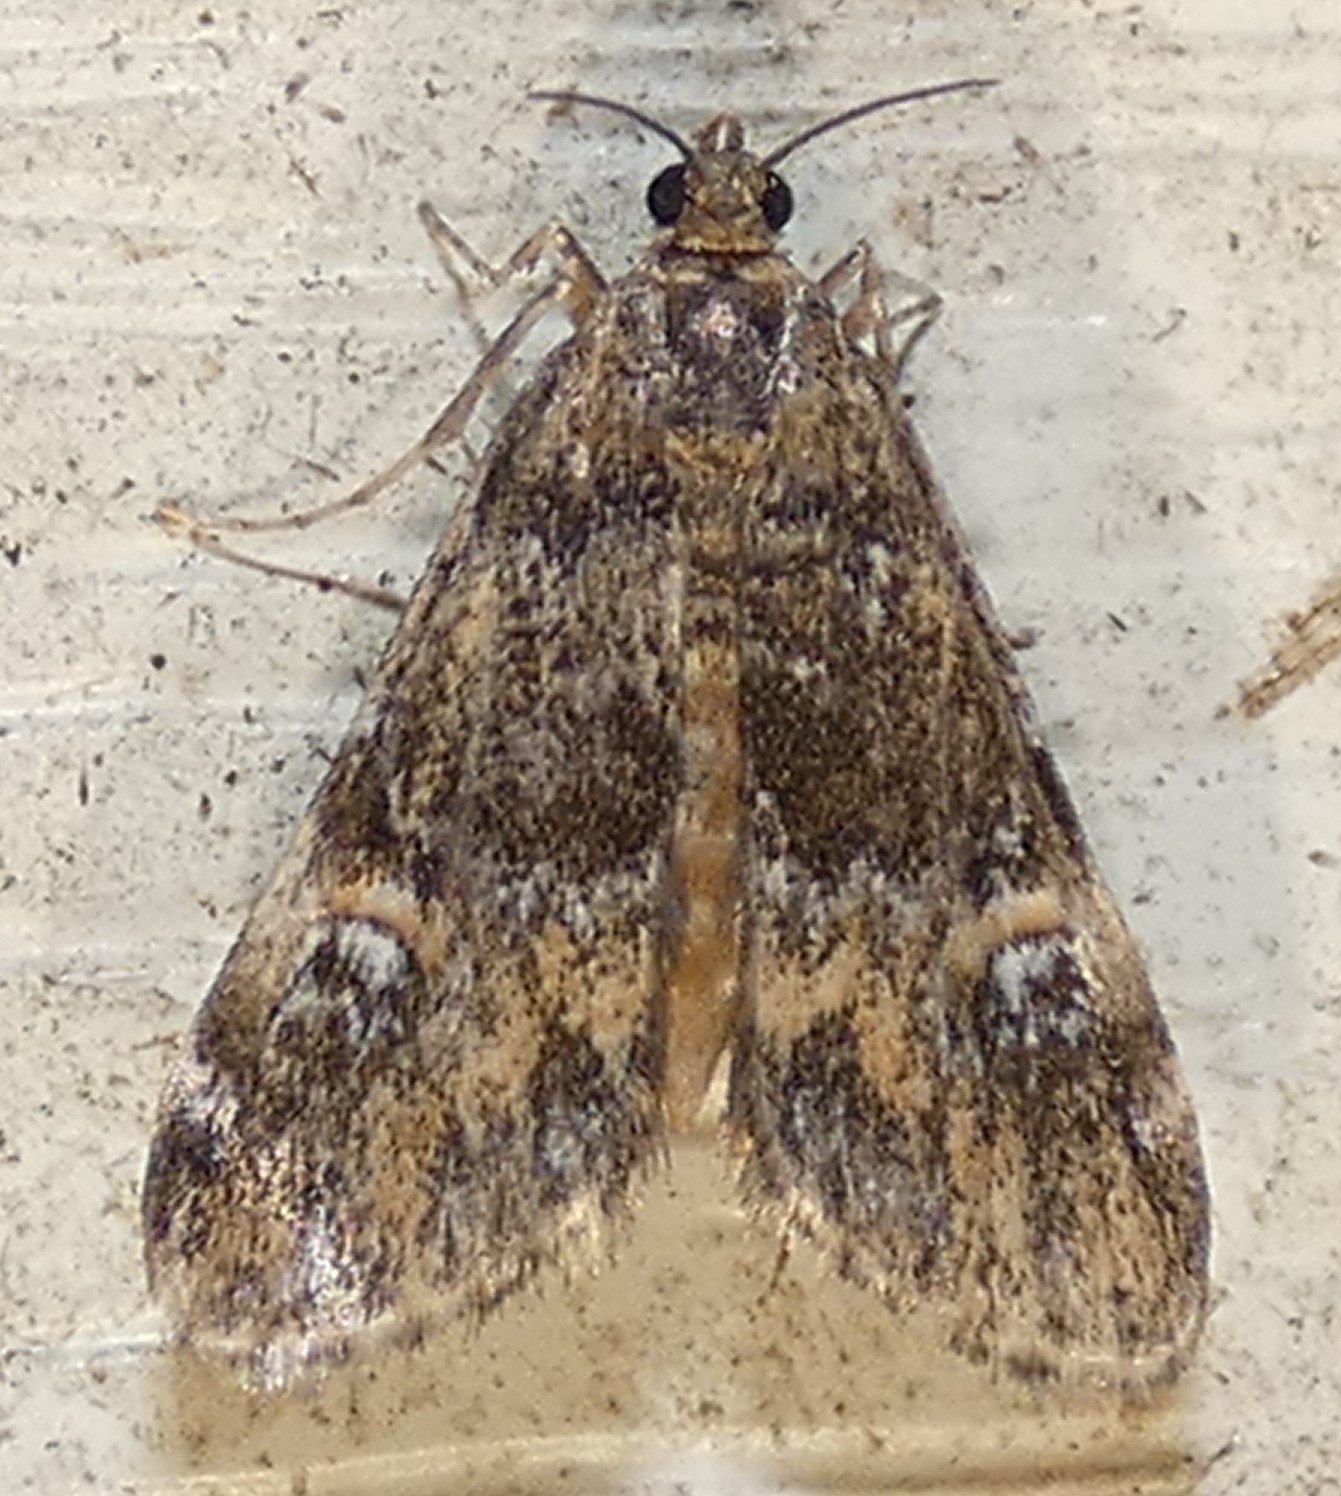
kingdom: Animalia
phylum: Arthropoda
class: Insecta
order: Lepidoptera
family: Crambidae
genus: Elophila
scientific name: Elophila obliteralis
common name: Waterlily leafcutter moth
